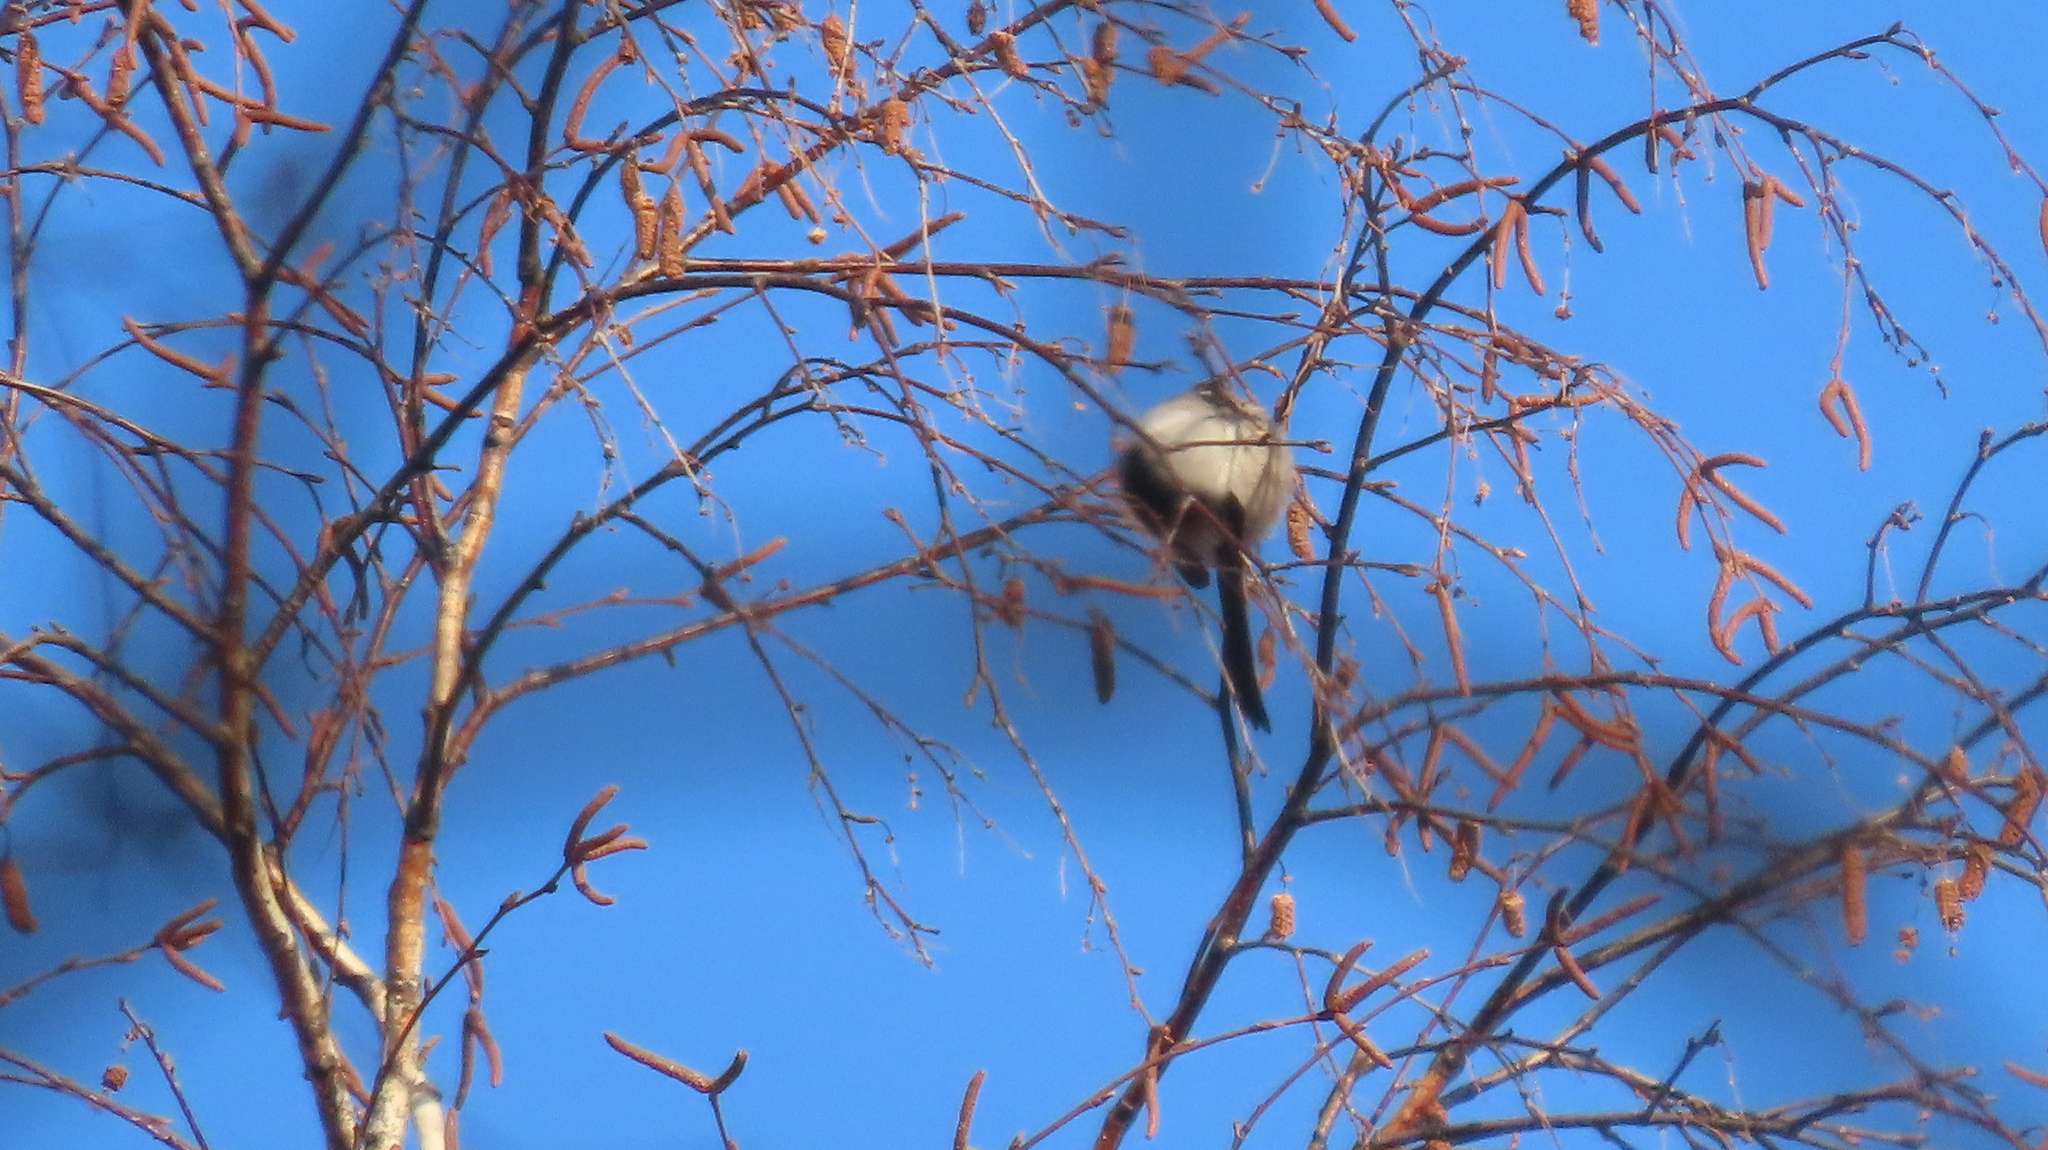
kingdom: Animalia
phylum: Chordata
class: Aves
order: Passeriformes
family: Aegithalidae
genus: Aegithalos
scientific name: Aegithalos caudatus
